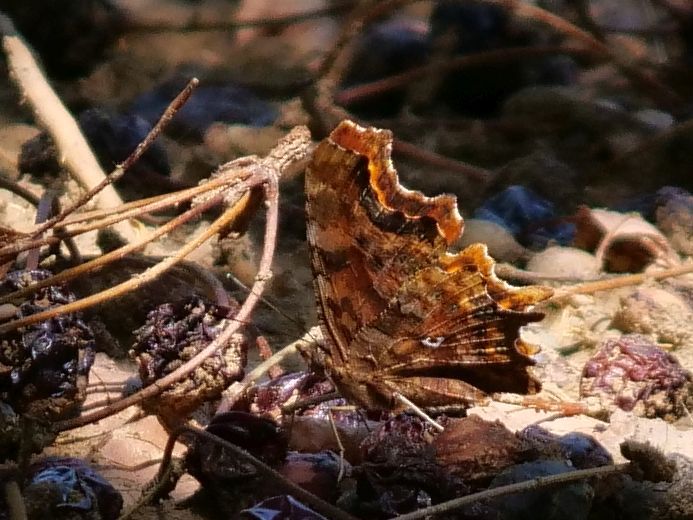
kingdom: Animalia
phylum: Arthropoda
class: Insecta
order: Lepidoptera
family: Nymphalidae
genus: Polygonia
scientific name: Polygonia c-album
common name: Comma
